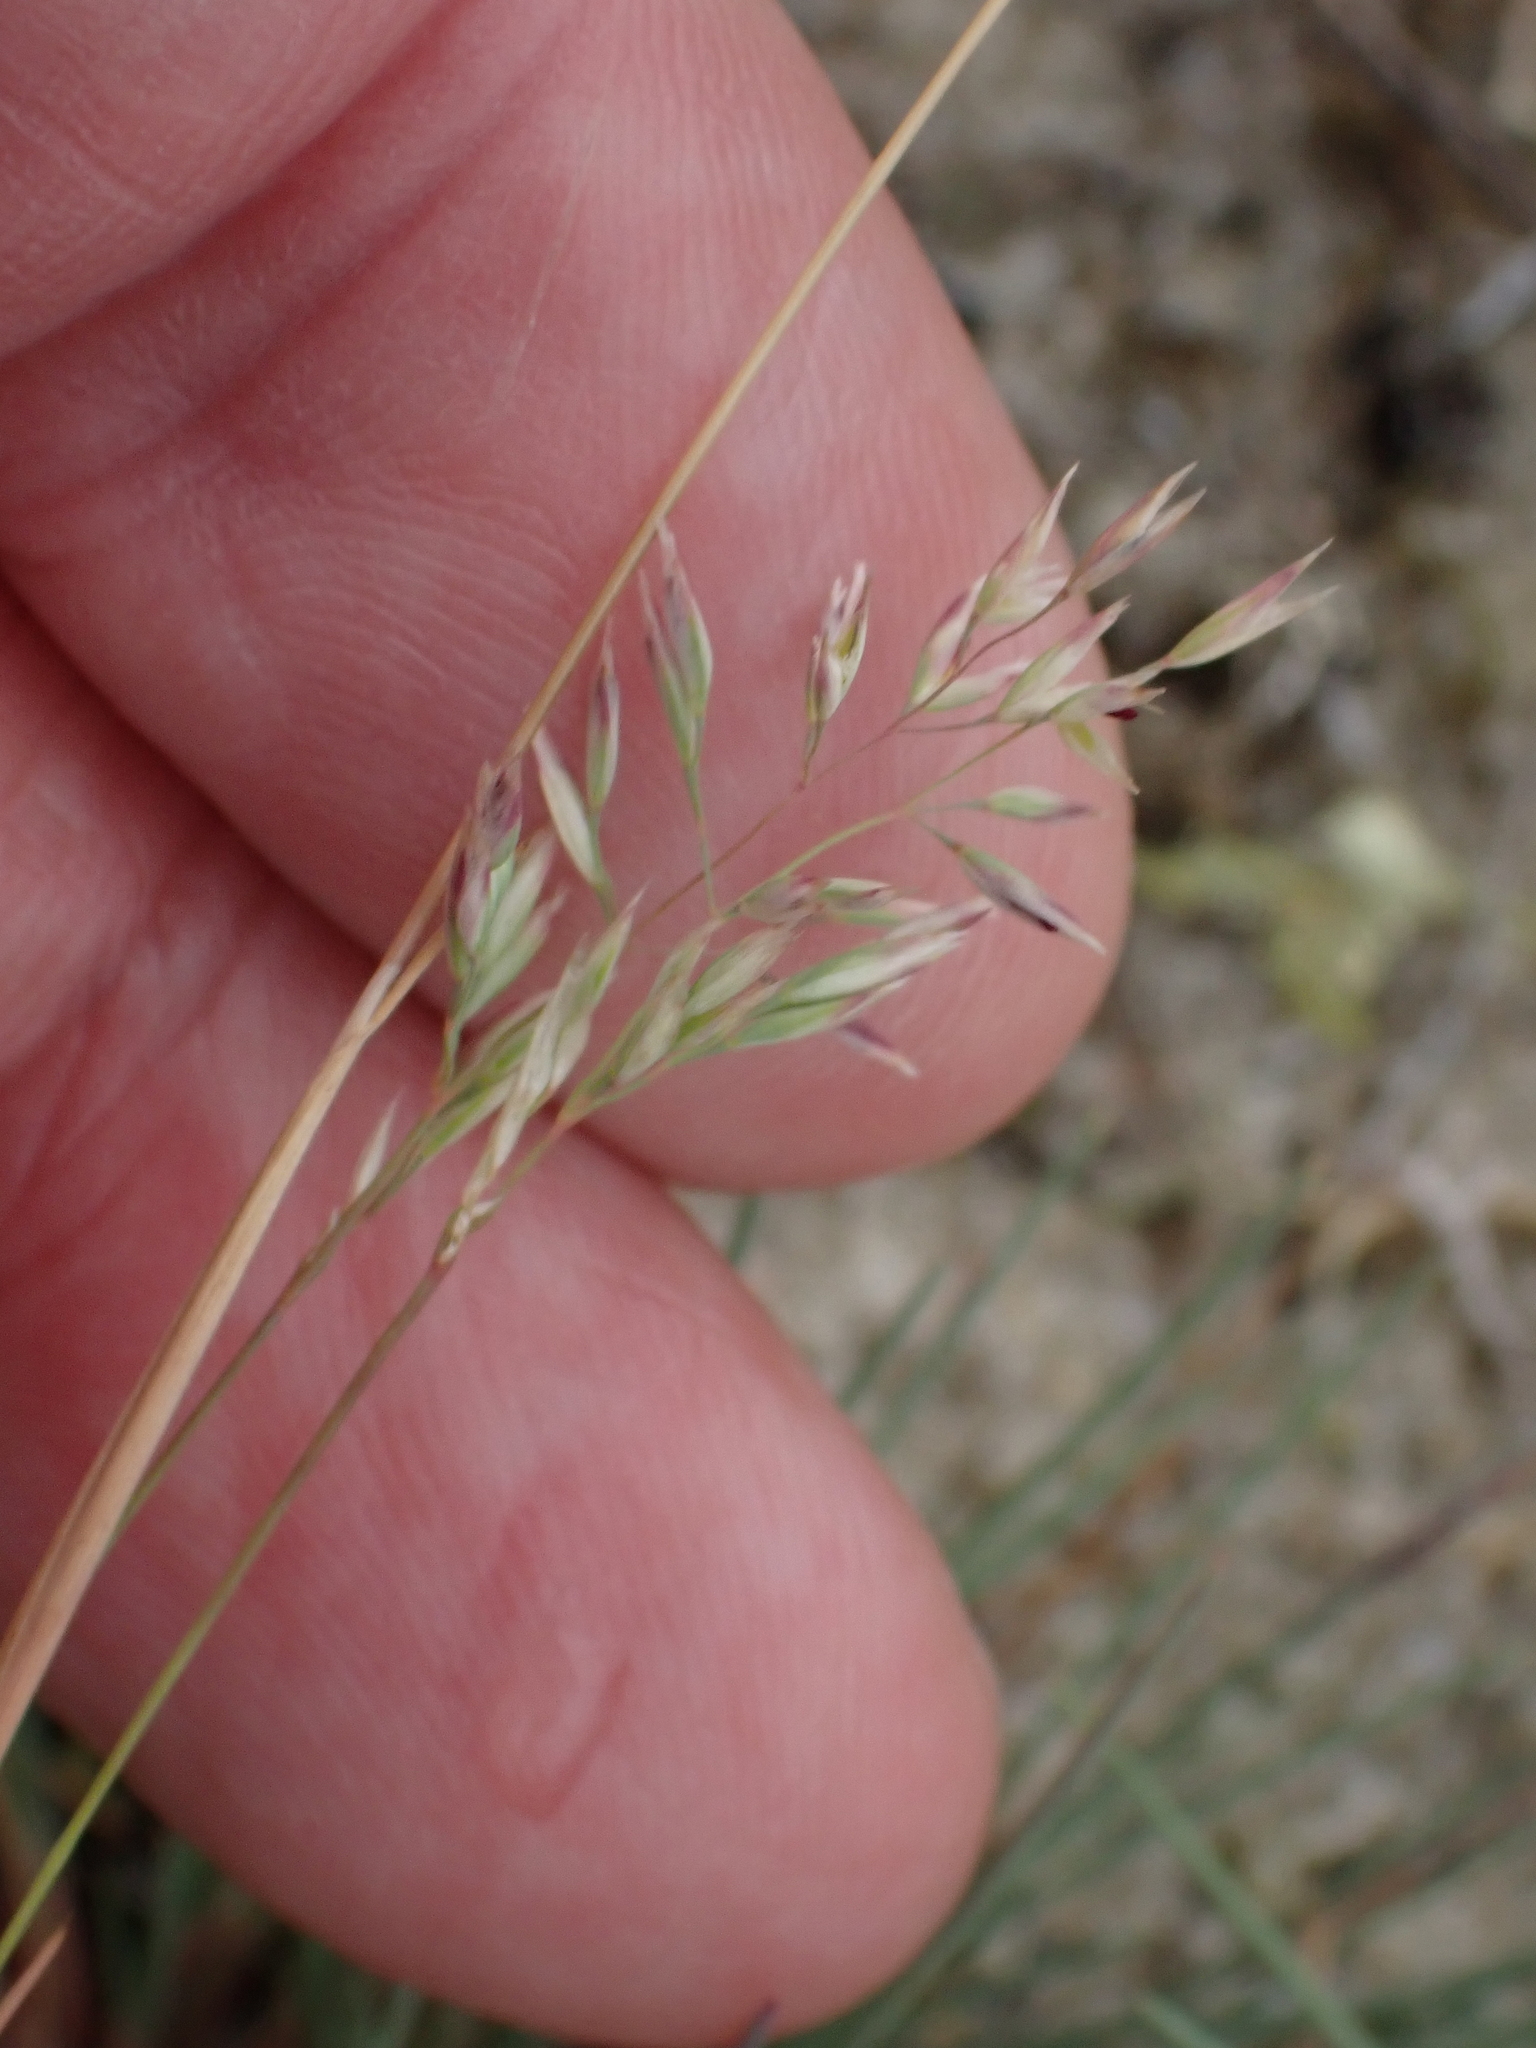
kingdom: Plantae
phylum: Tracheophyta
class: Liliopsida
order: Poales
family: Poaceae
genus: Corynephorus
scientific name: Corynephorus canescens
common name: Grey hair-grass
